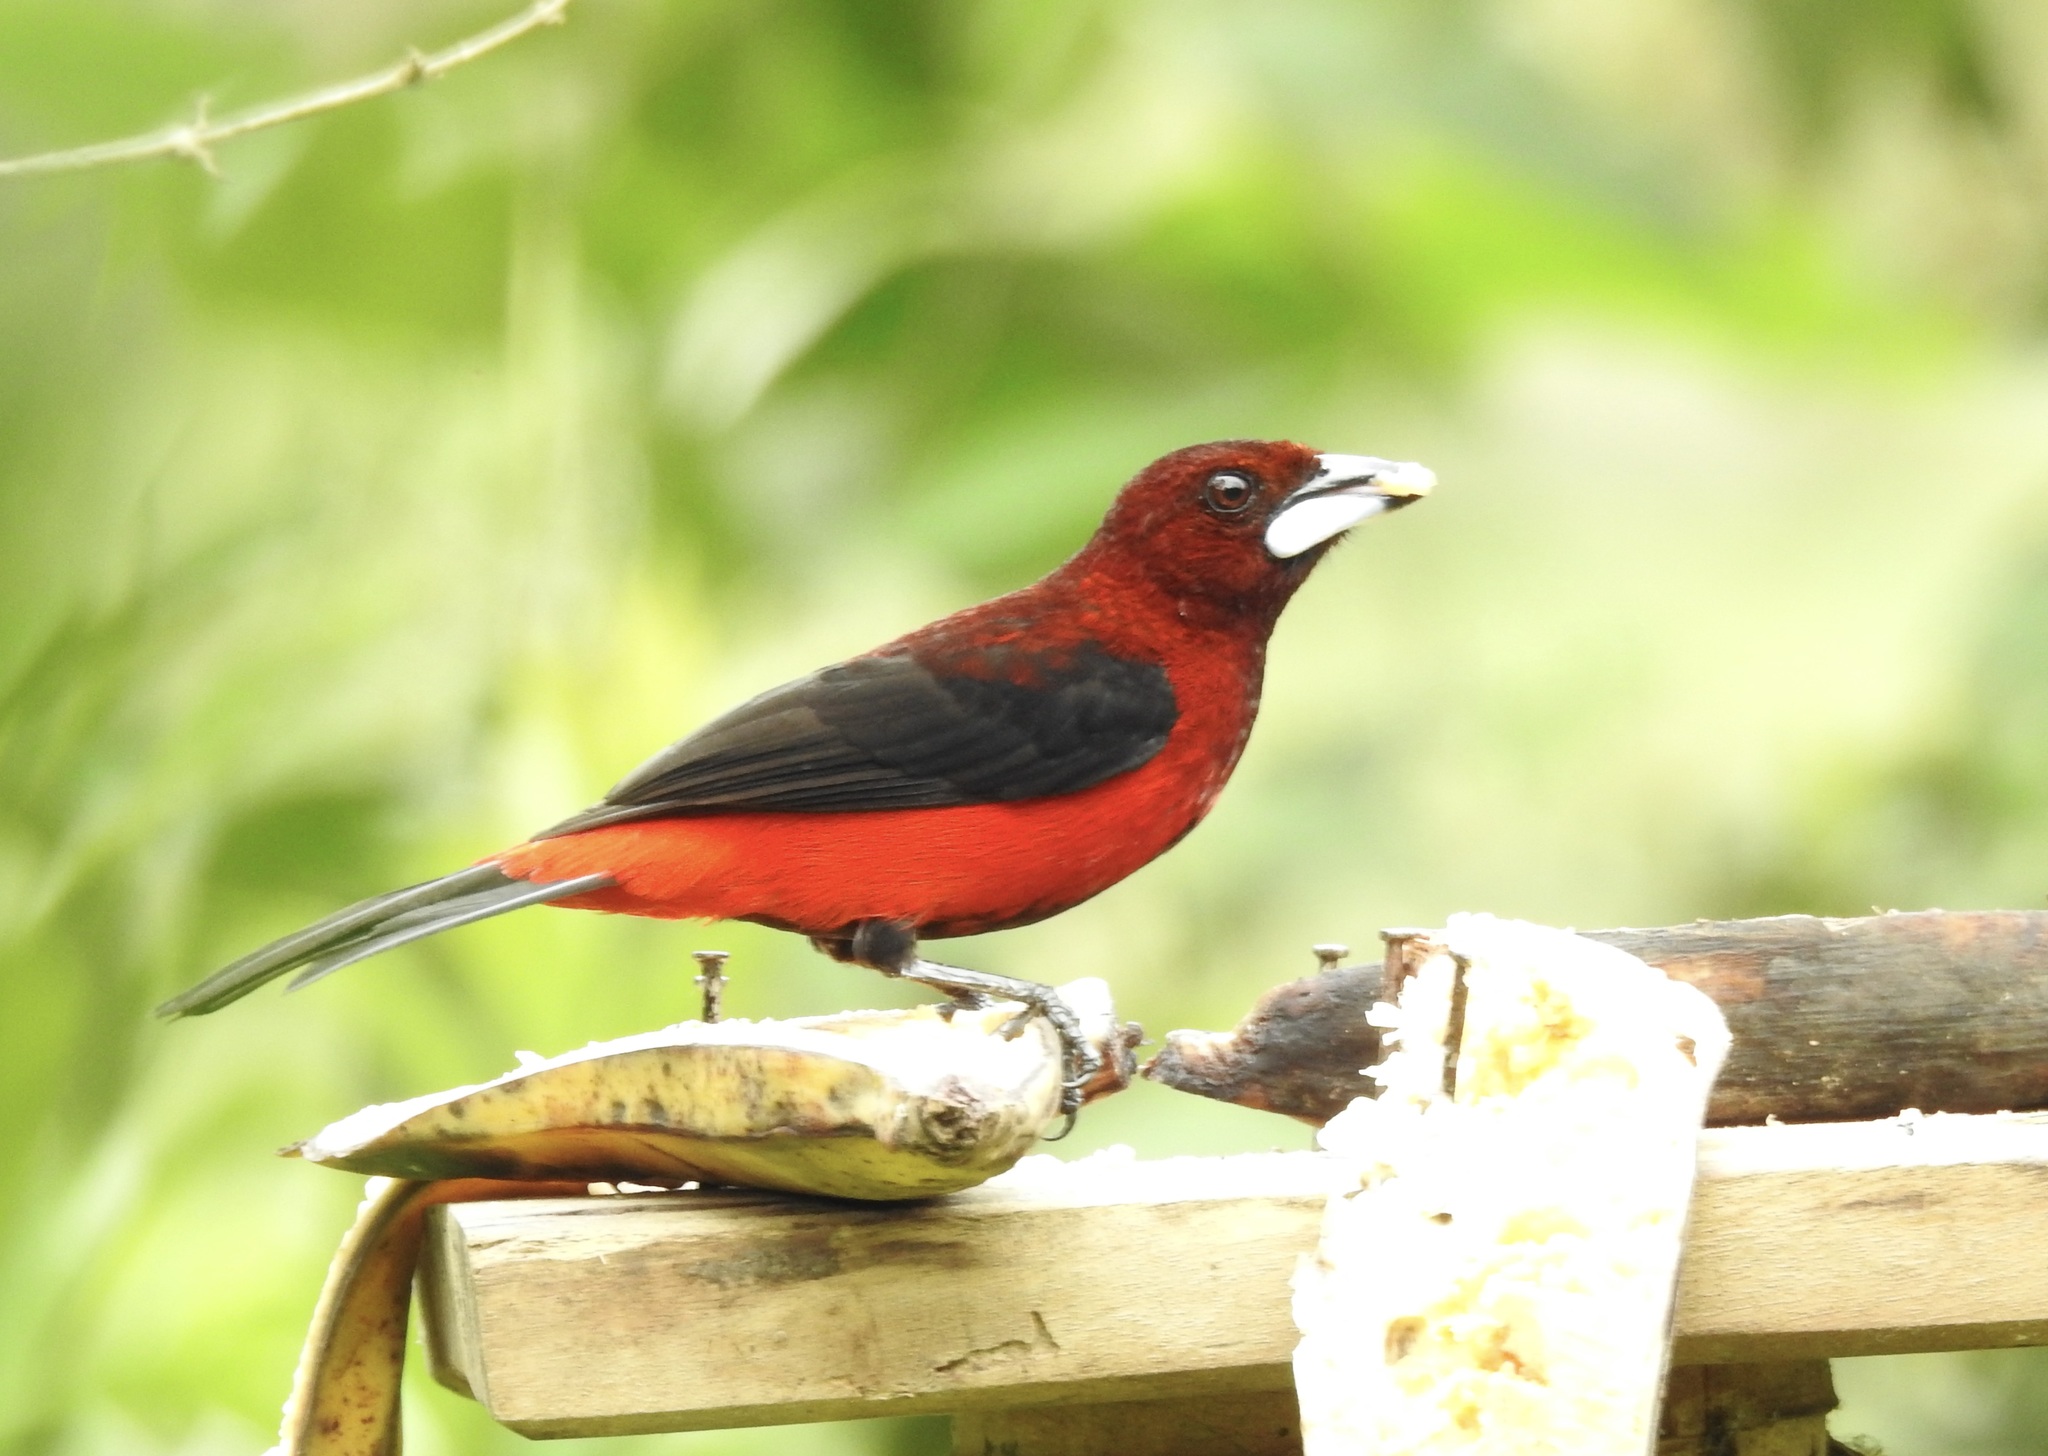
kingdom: Animalia
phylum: Chordata
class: Aves
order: Passeriformes
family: Thraupidae
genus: Ramphocelus
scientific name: Ramphocelus dimidiatus
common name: Crimson-backed tanager
